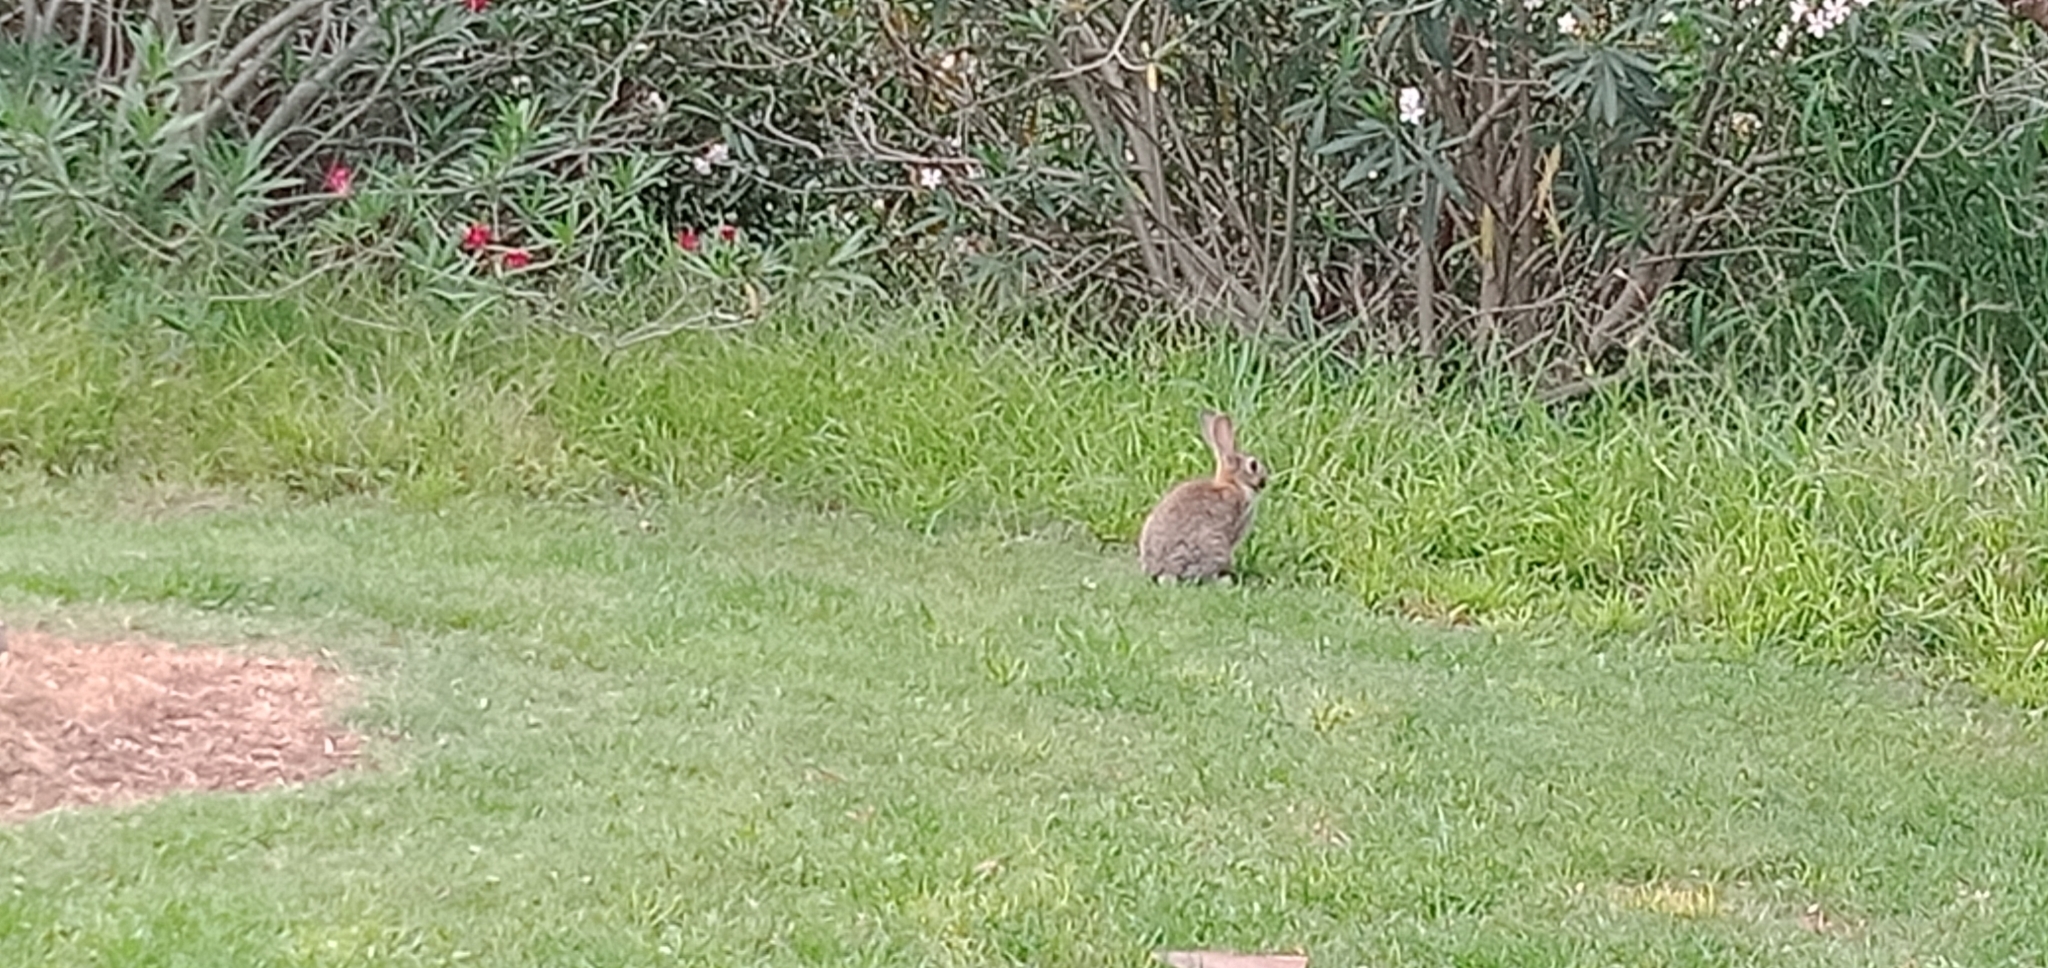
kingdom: Animalia
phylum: Chordata
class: Mammalia
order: Lagomorpha
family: Leporidae
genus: Oryctolagus
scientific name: Oryctolagus cuniculus
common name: European rabbit
